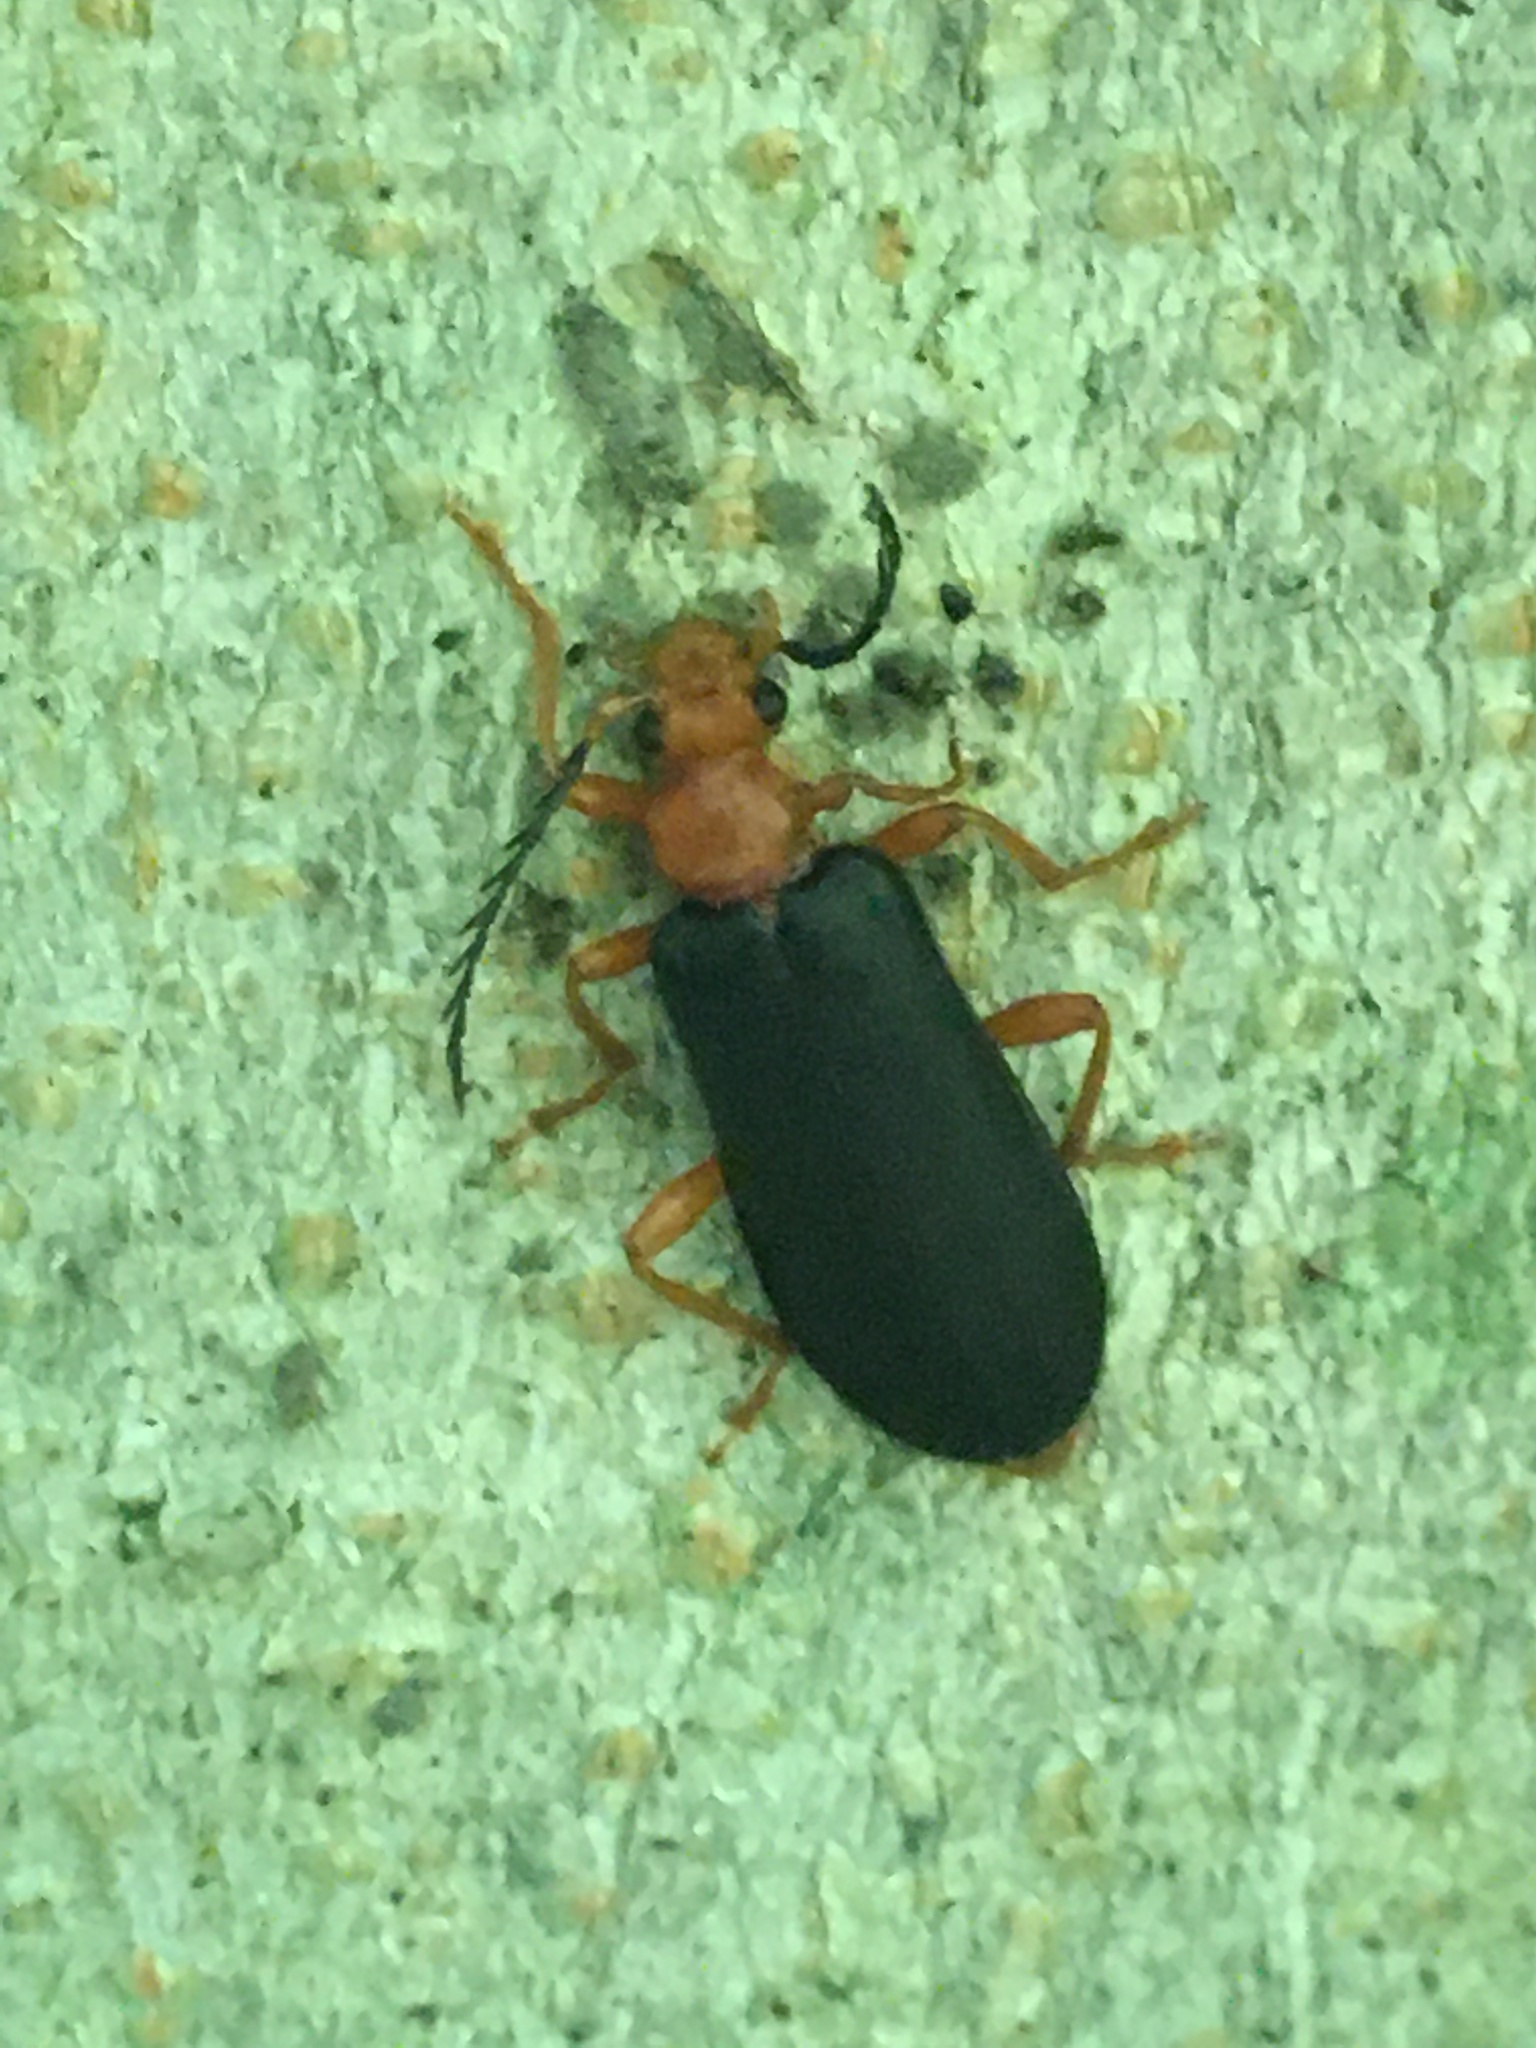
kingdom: Animalia
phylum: Arthropoda
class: Insecta
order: Coleoptera
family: Pyrochroidae
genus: Neopyrochroa
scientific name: Neopyrochroa flabellata
